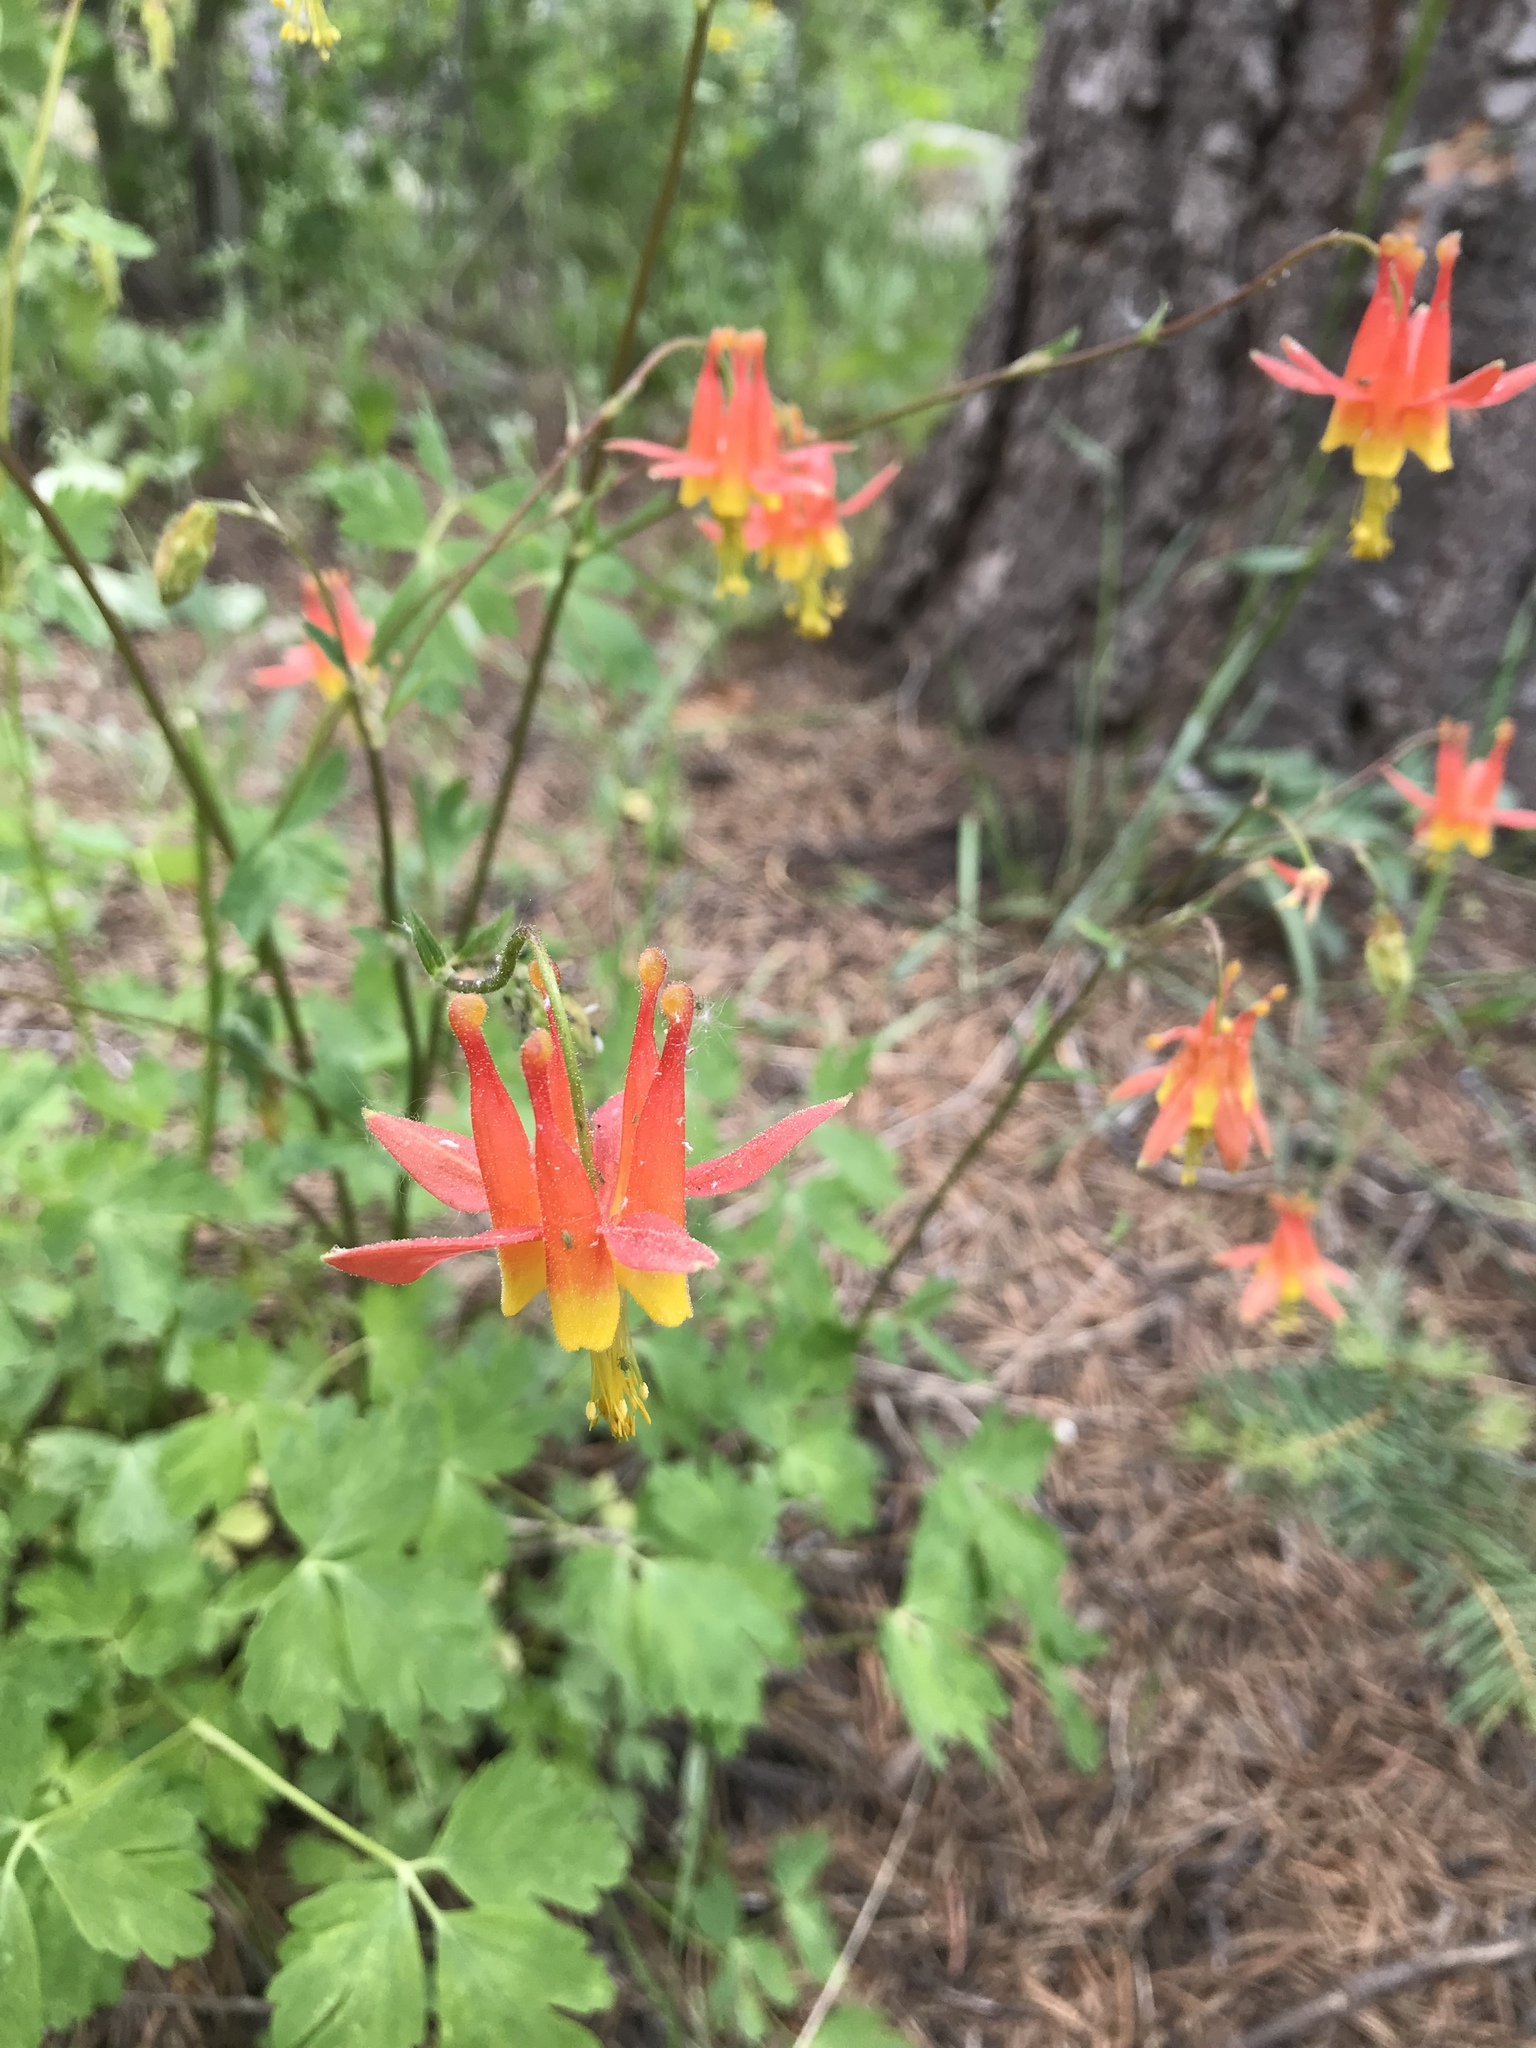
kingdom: Plantae
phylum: Tracheophyta
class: Magnoliopsida
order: Ranunculales
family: Ranunculaceae
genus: Aquilegia
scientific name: Aquilegia formosa
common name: Sitka columbine
